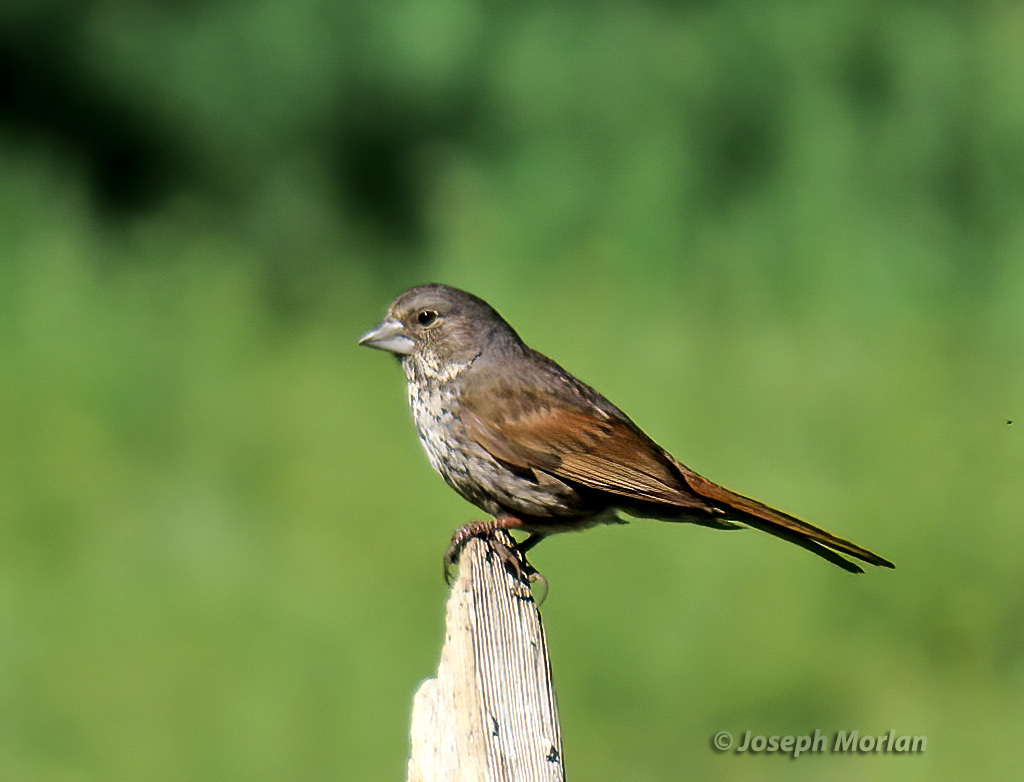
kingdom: Animalia
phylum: Chordata
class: Aves
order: Passeriformes
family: Passerellidae
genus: Passerella
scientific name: Passerella iliaca
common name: Fox sparrow
